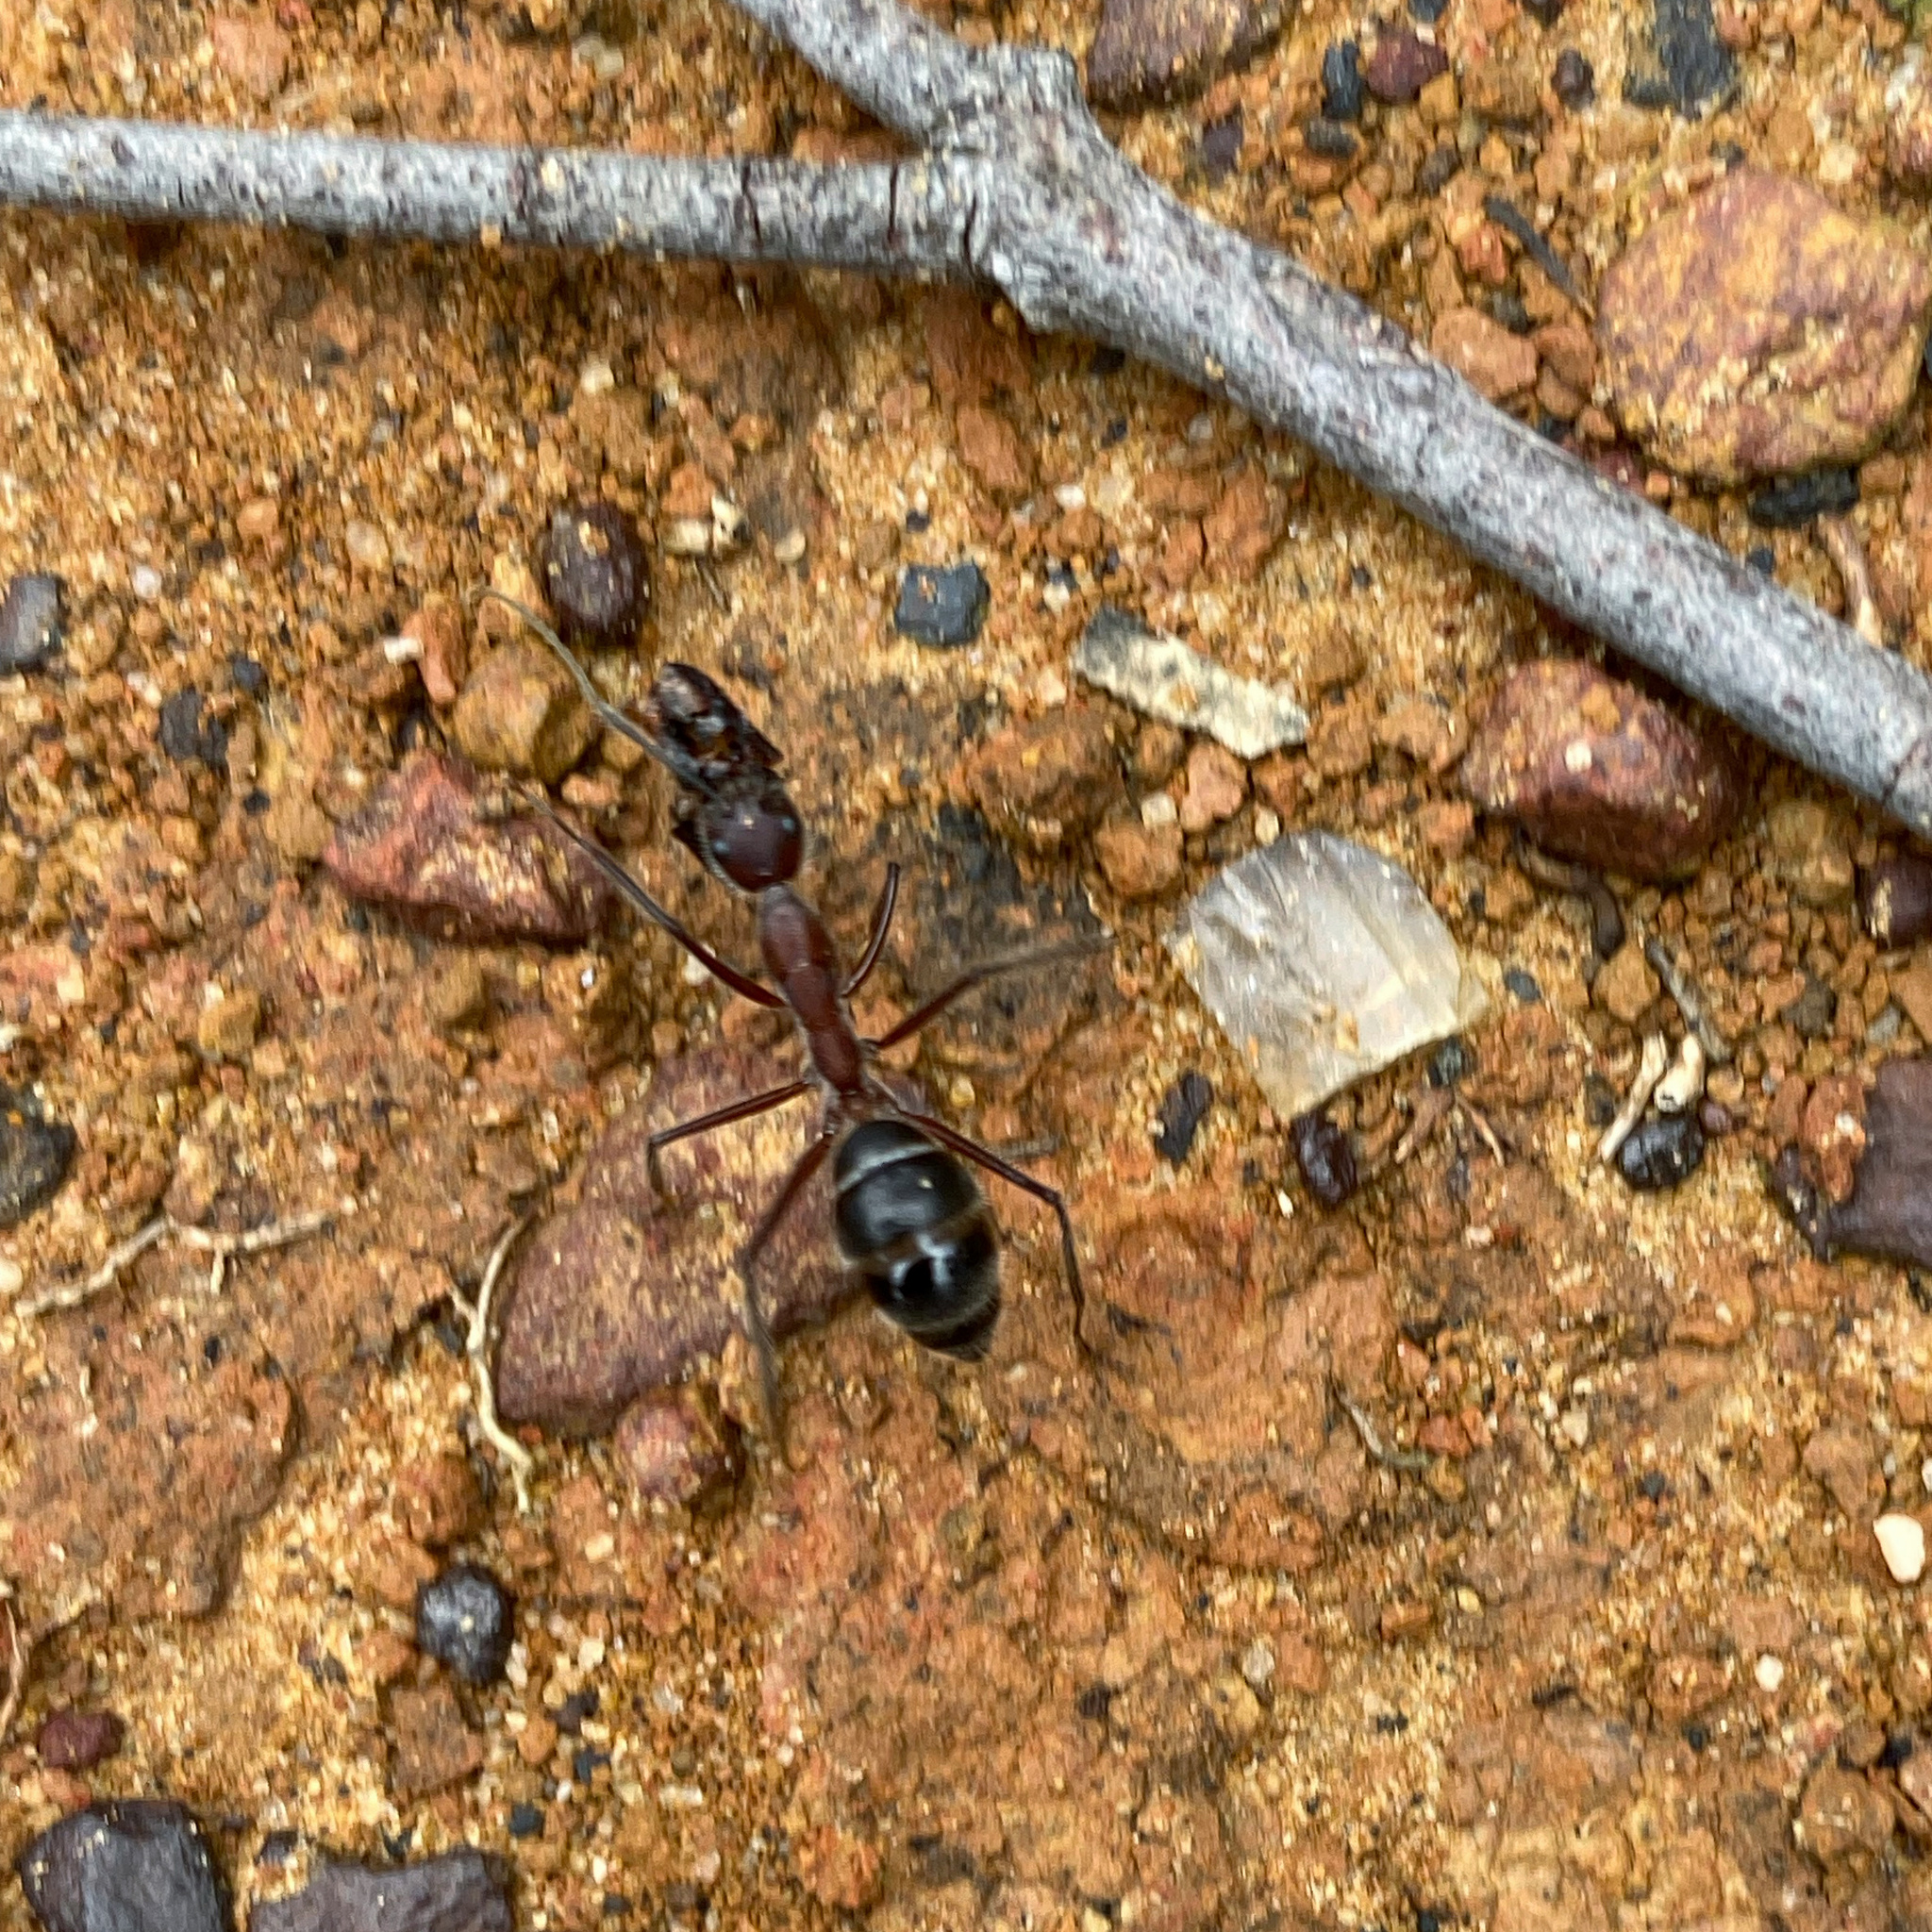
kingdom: Animalia
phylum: Arthropoda
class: Insecta
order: Hymenoptera
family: Formicidae
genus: Camponotus
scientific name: Camponotus intrepidus
